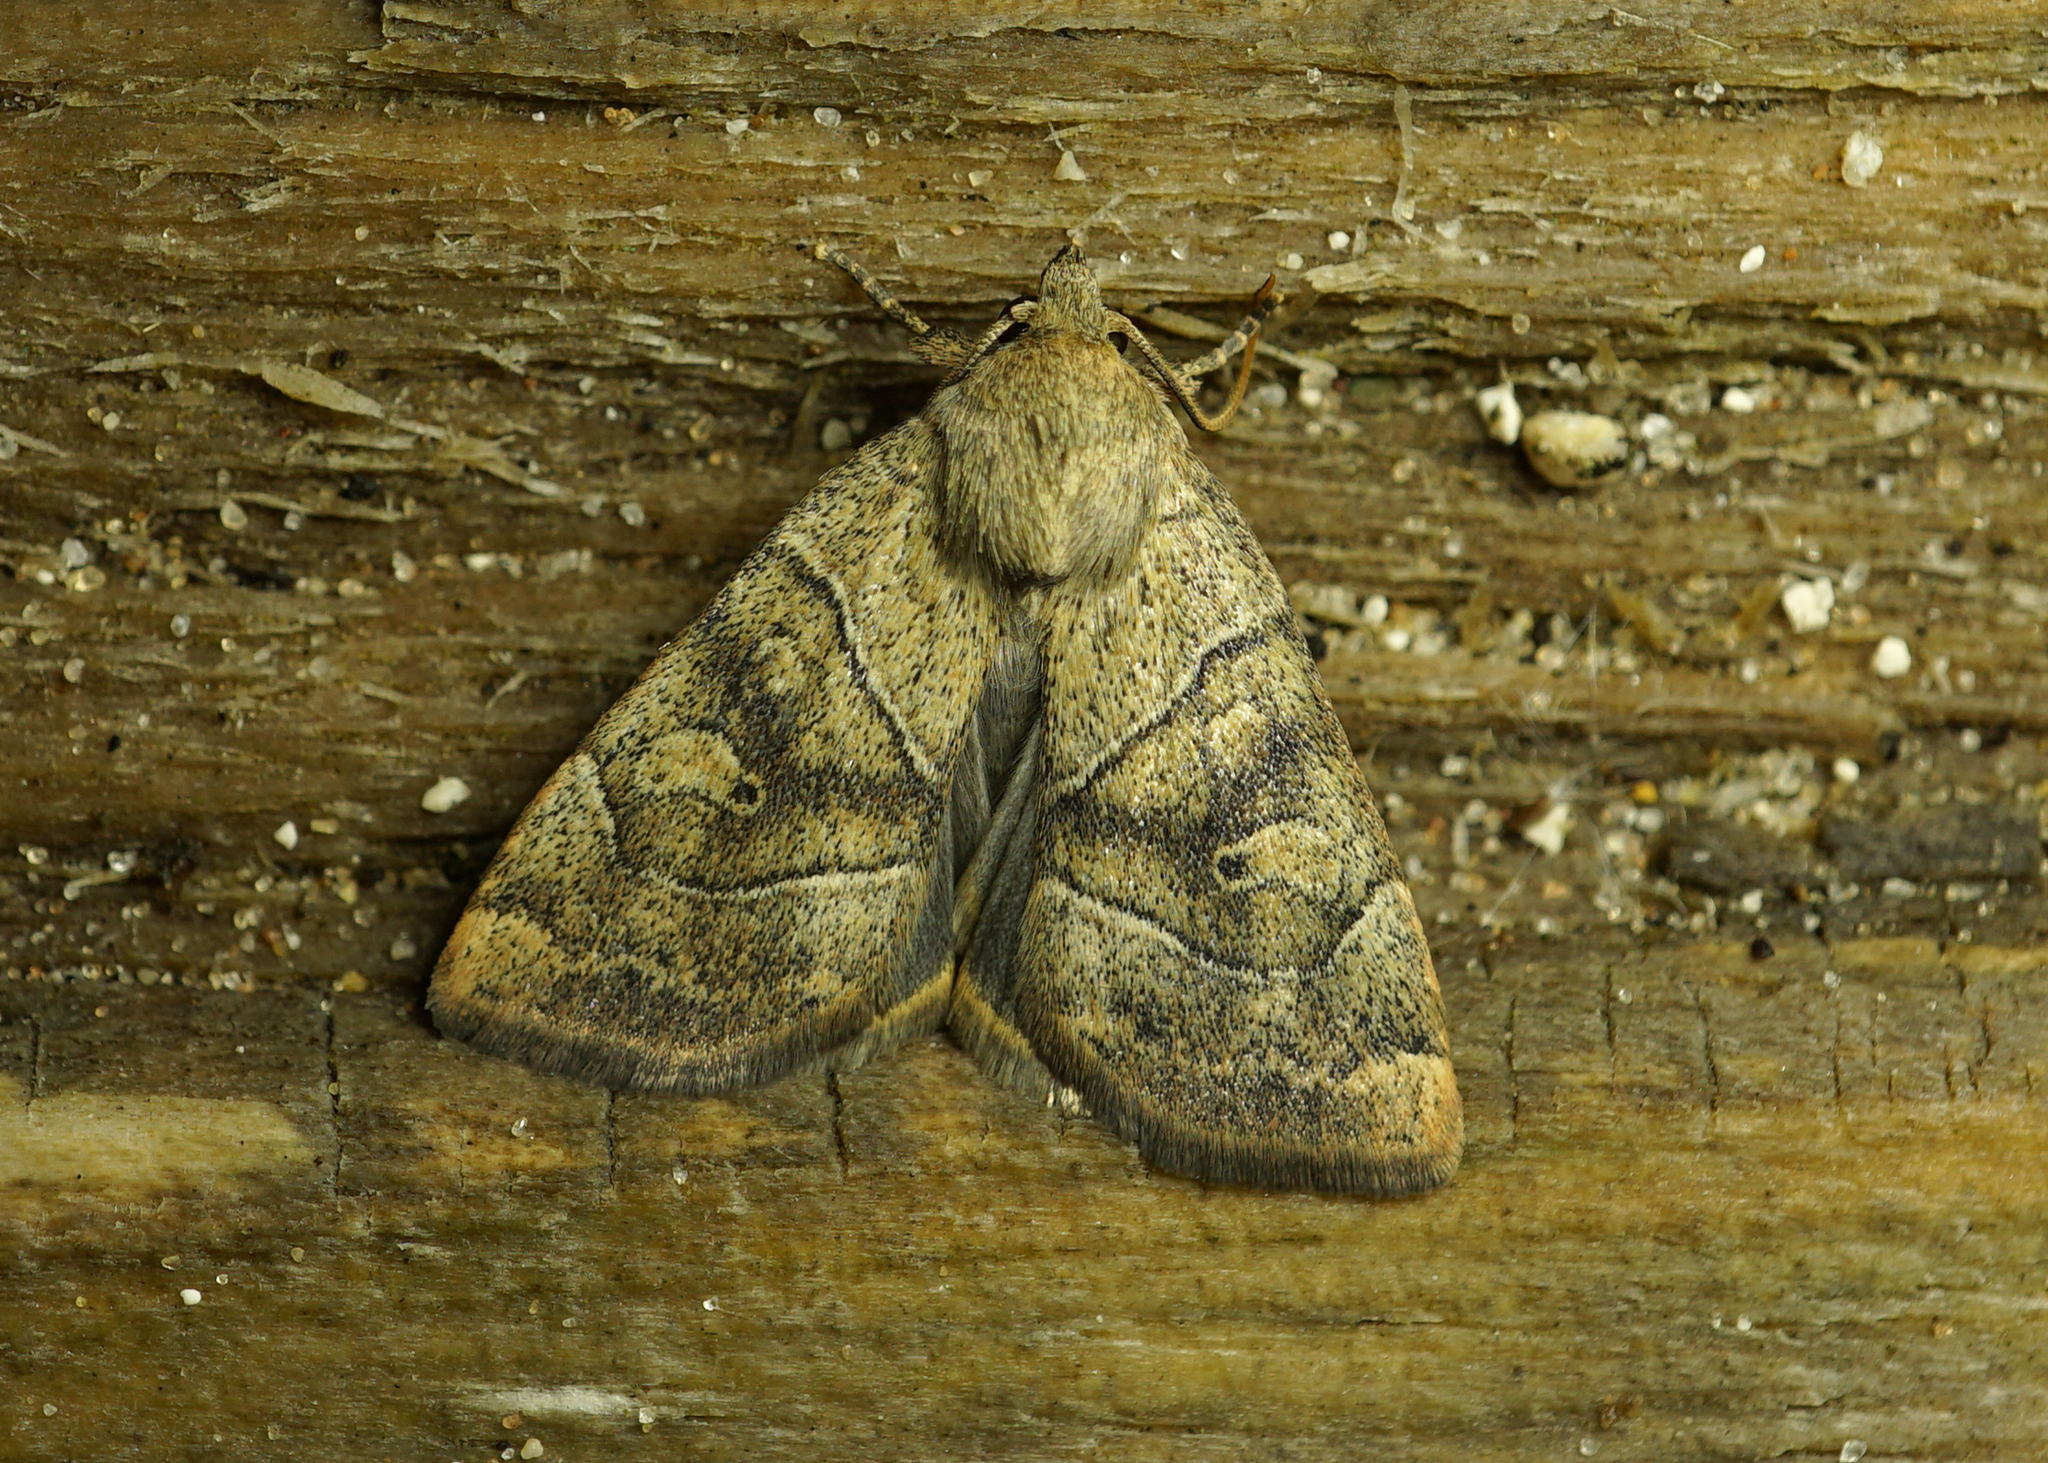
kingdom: Animalia
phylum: Arthropoda
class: Insecta
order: Lepidoptera
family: Noctuidae
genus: Cosmia
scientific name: Cosmia trapezina
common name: Dun-bar
